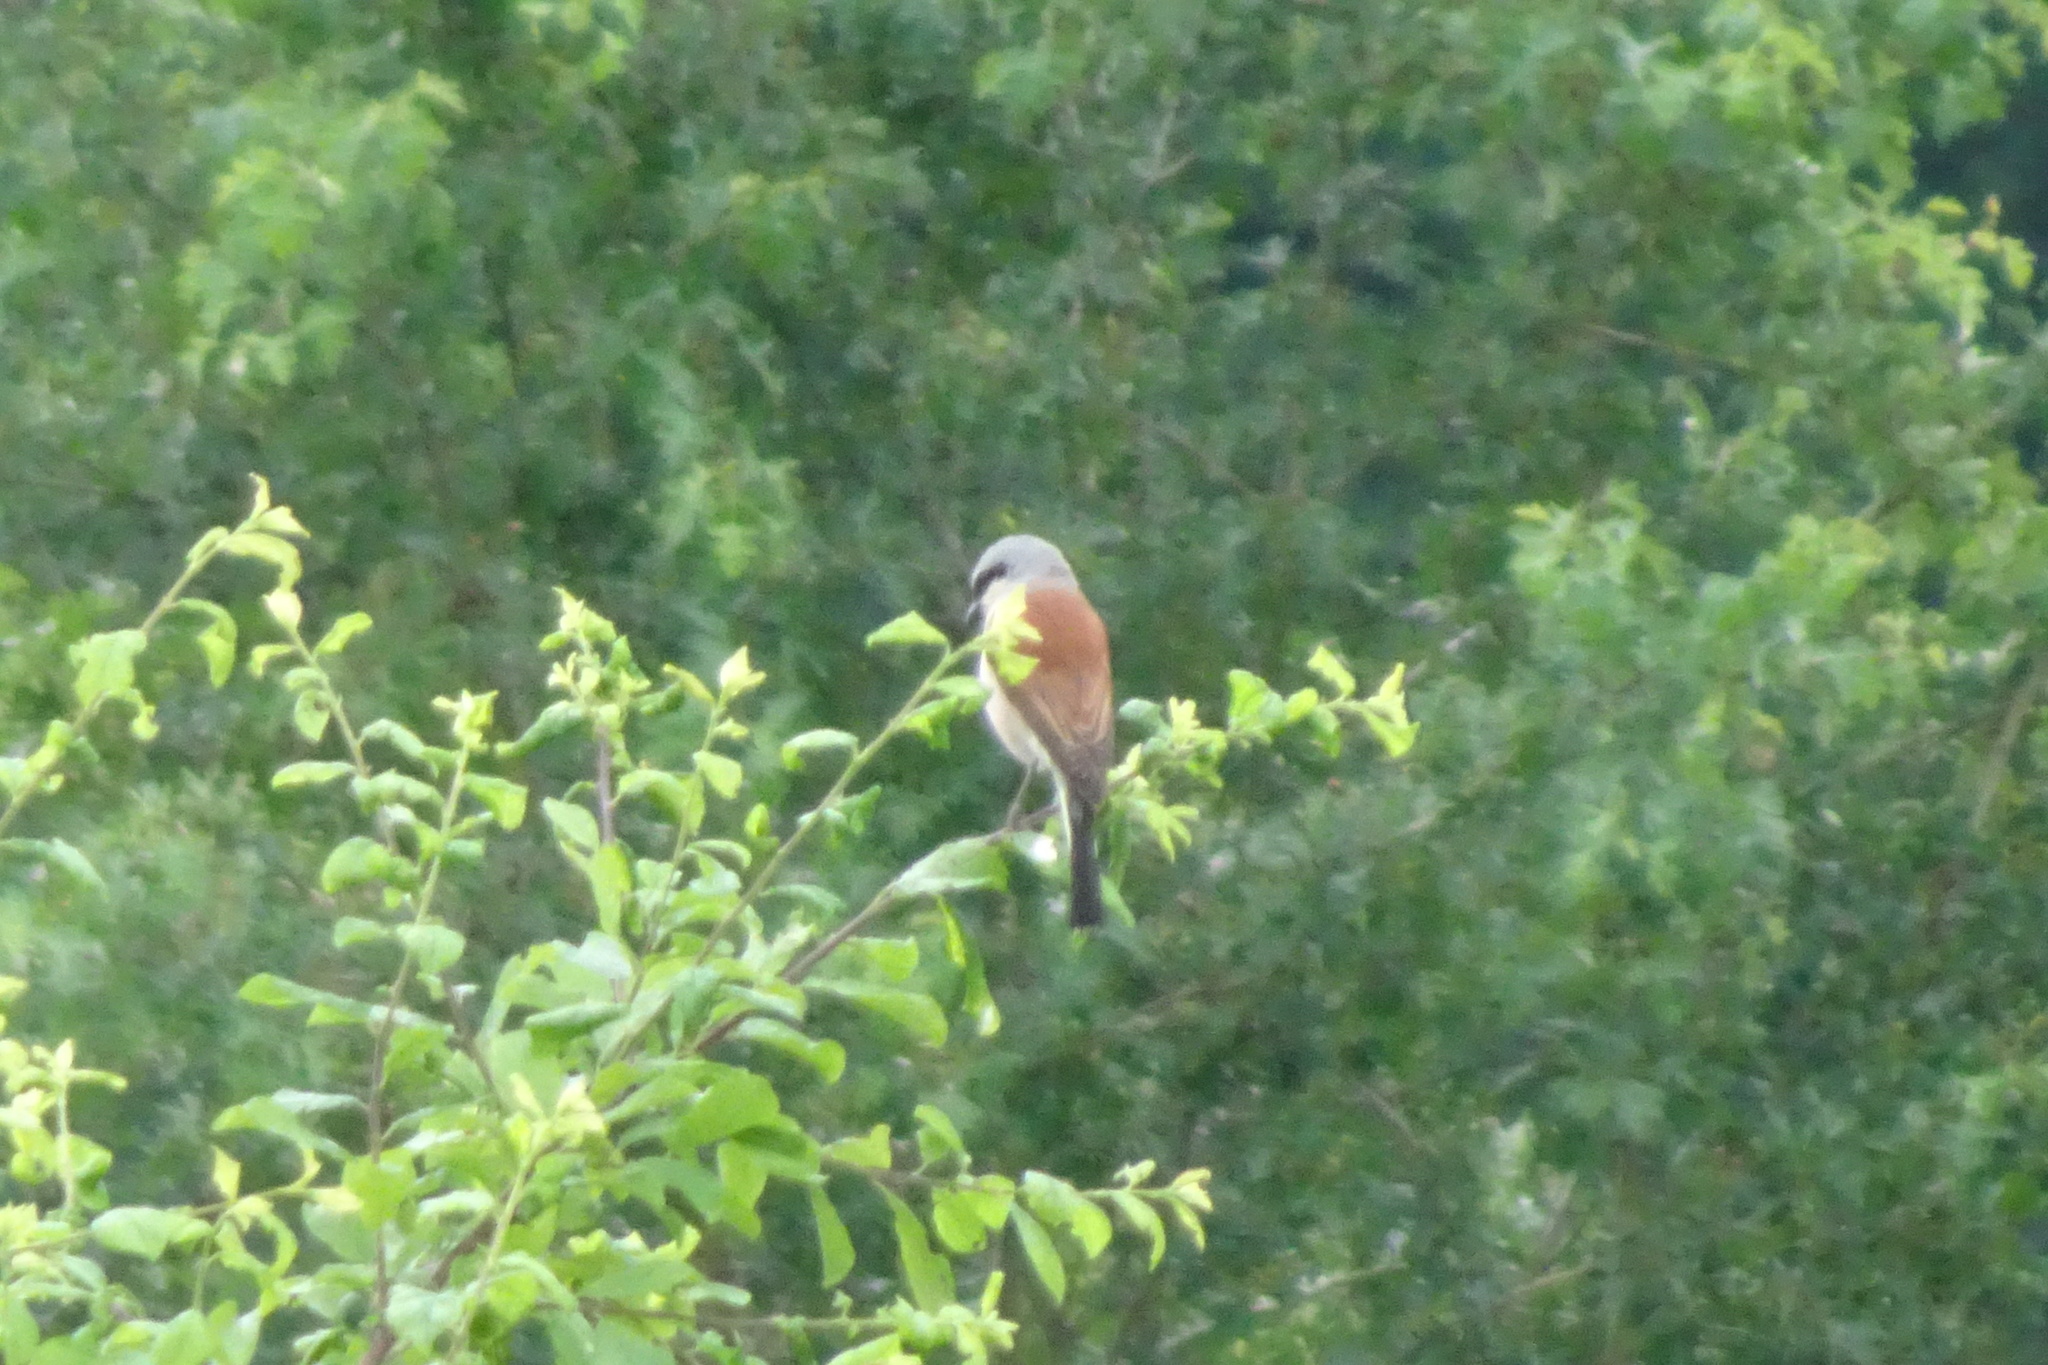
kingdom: Animalia
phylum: Chordata
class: Aves
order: Passeriformes
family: Laniidae
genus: Lanius
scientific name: Lanius collurio
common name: Red-backed shrike
